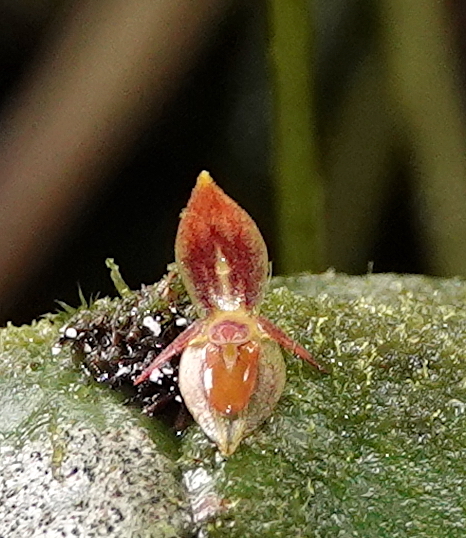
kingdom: Plantae
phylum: Tracheophyta
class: Liliopsida
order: Asparagales
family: Orchidaceae
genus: Pleurothallis
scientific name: Pleurothallis coriacardia
